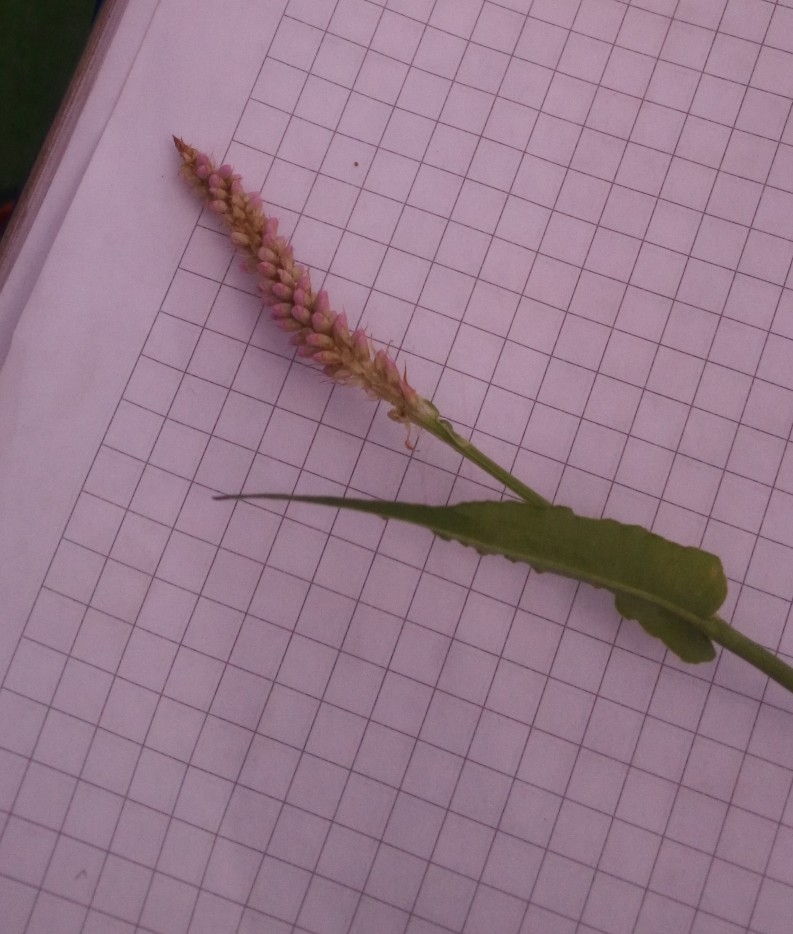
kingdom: Plantae
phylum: Tracheophyta
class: Magnoliopsida
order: Caryophyllales
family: Polygonaceae
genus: Bistorta
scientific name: Bistorta officinalis
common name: Common bistort
